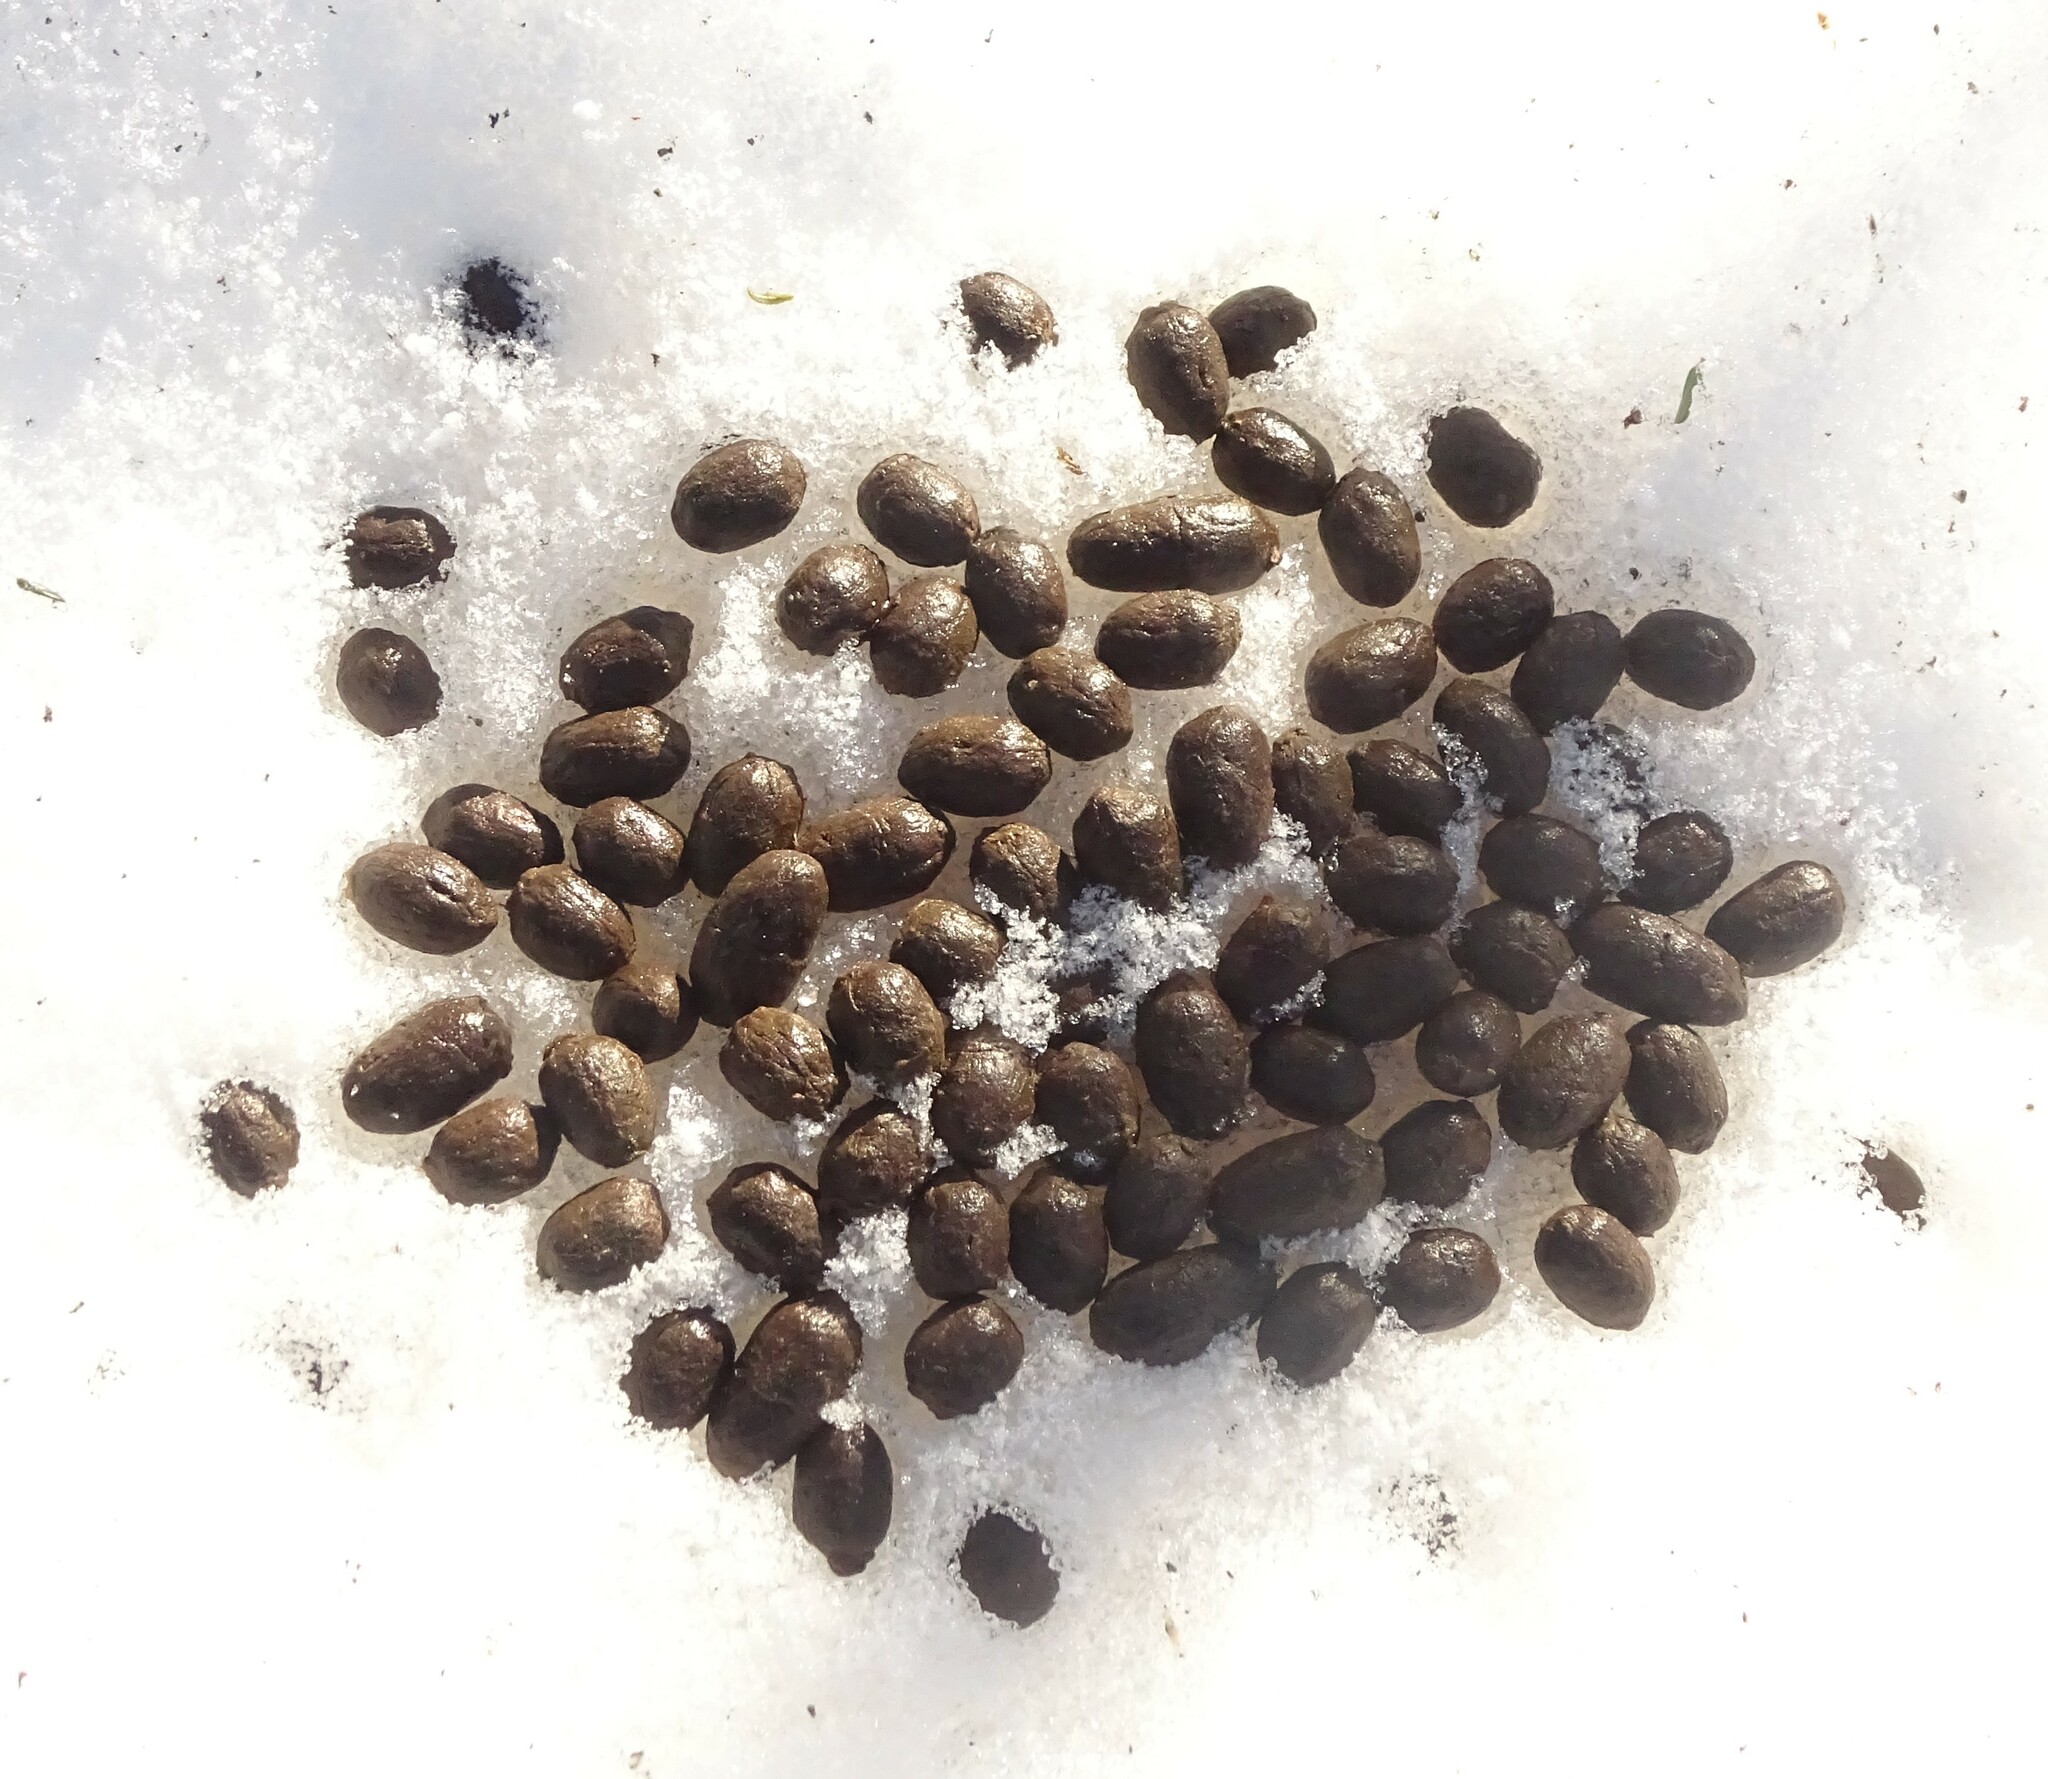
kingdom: Animalia
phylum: Chordata
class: Mammalia
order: Artiodactyla
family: Cervidae
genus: Odocoileus
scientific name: Odocoileus virginianus
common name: White-tailed deer
